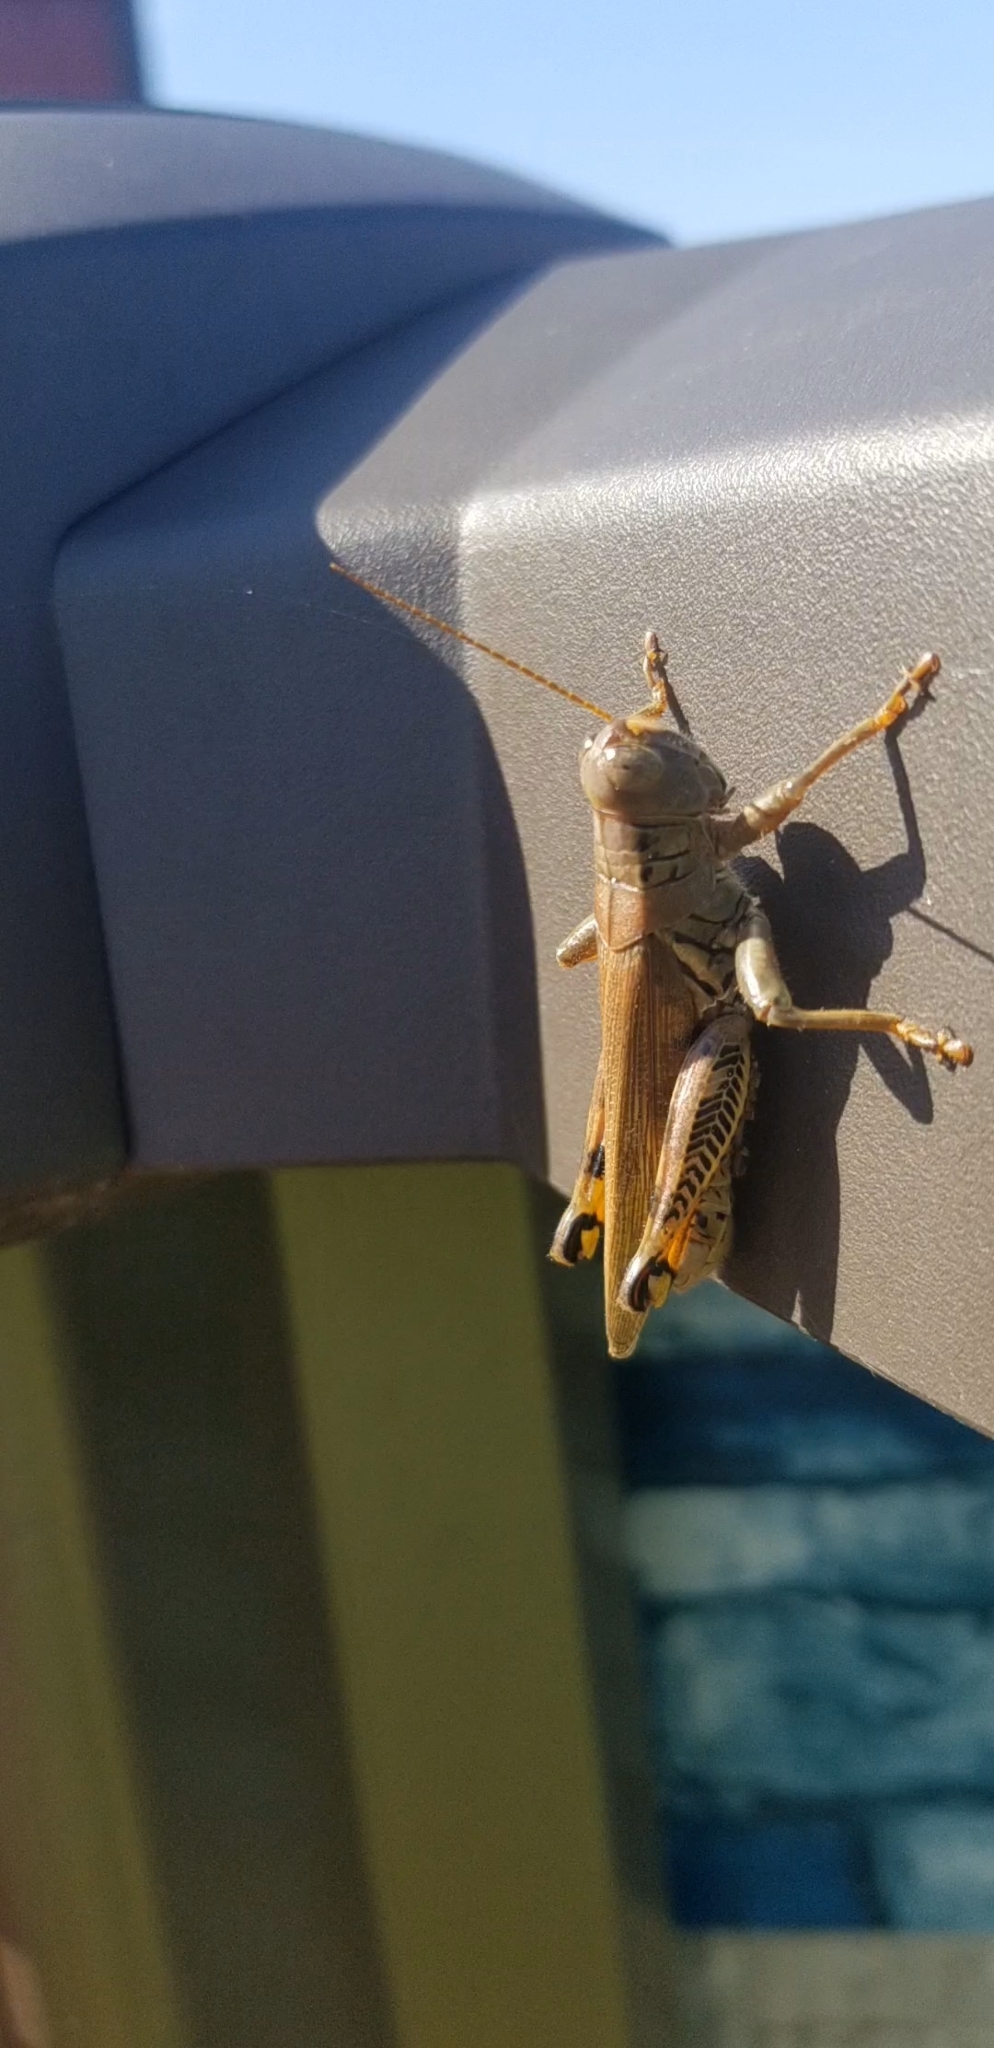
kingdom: Animalia
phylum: Arthropoda
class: Insecta
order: Orthoptera
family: Acrididae
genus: Melanoplus
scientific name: Melanoplus differentialis
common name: Differential grasshopper
